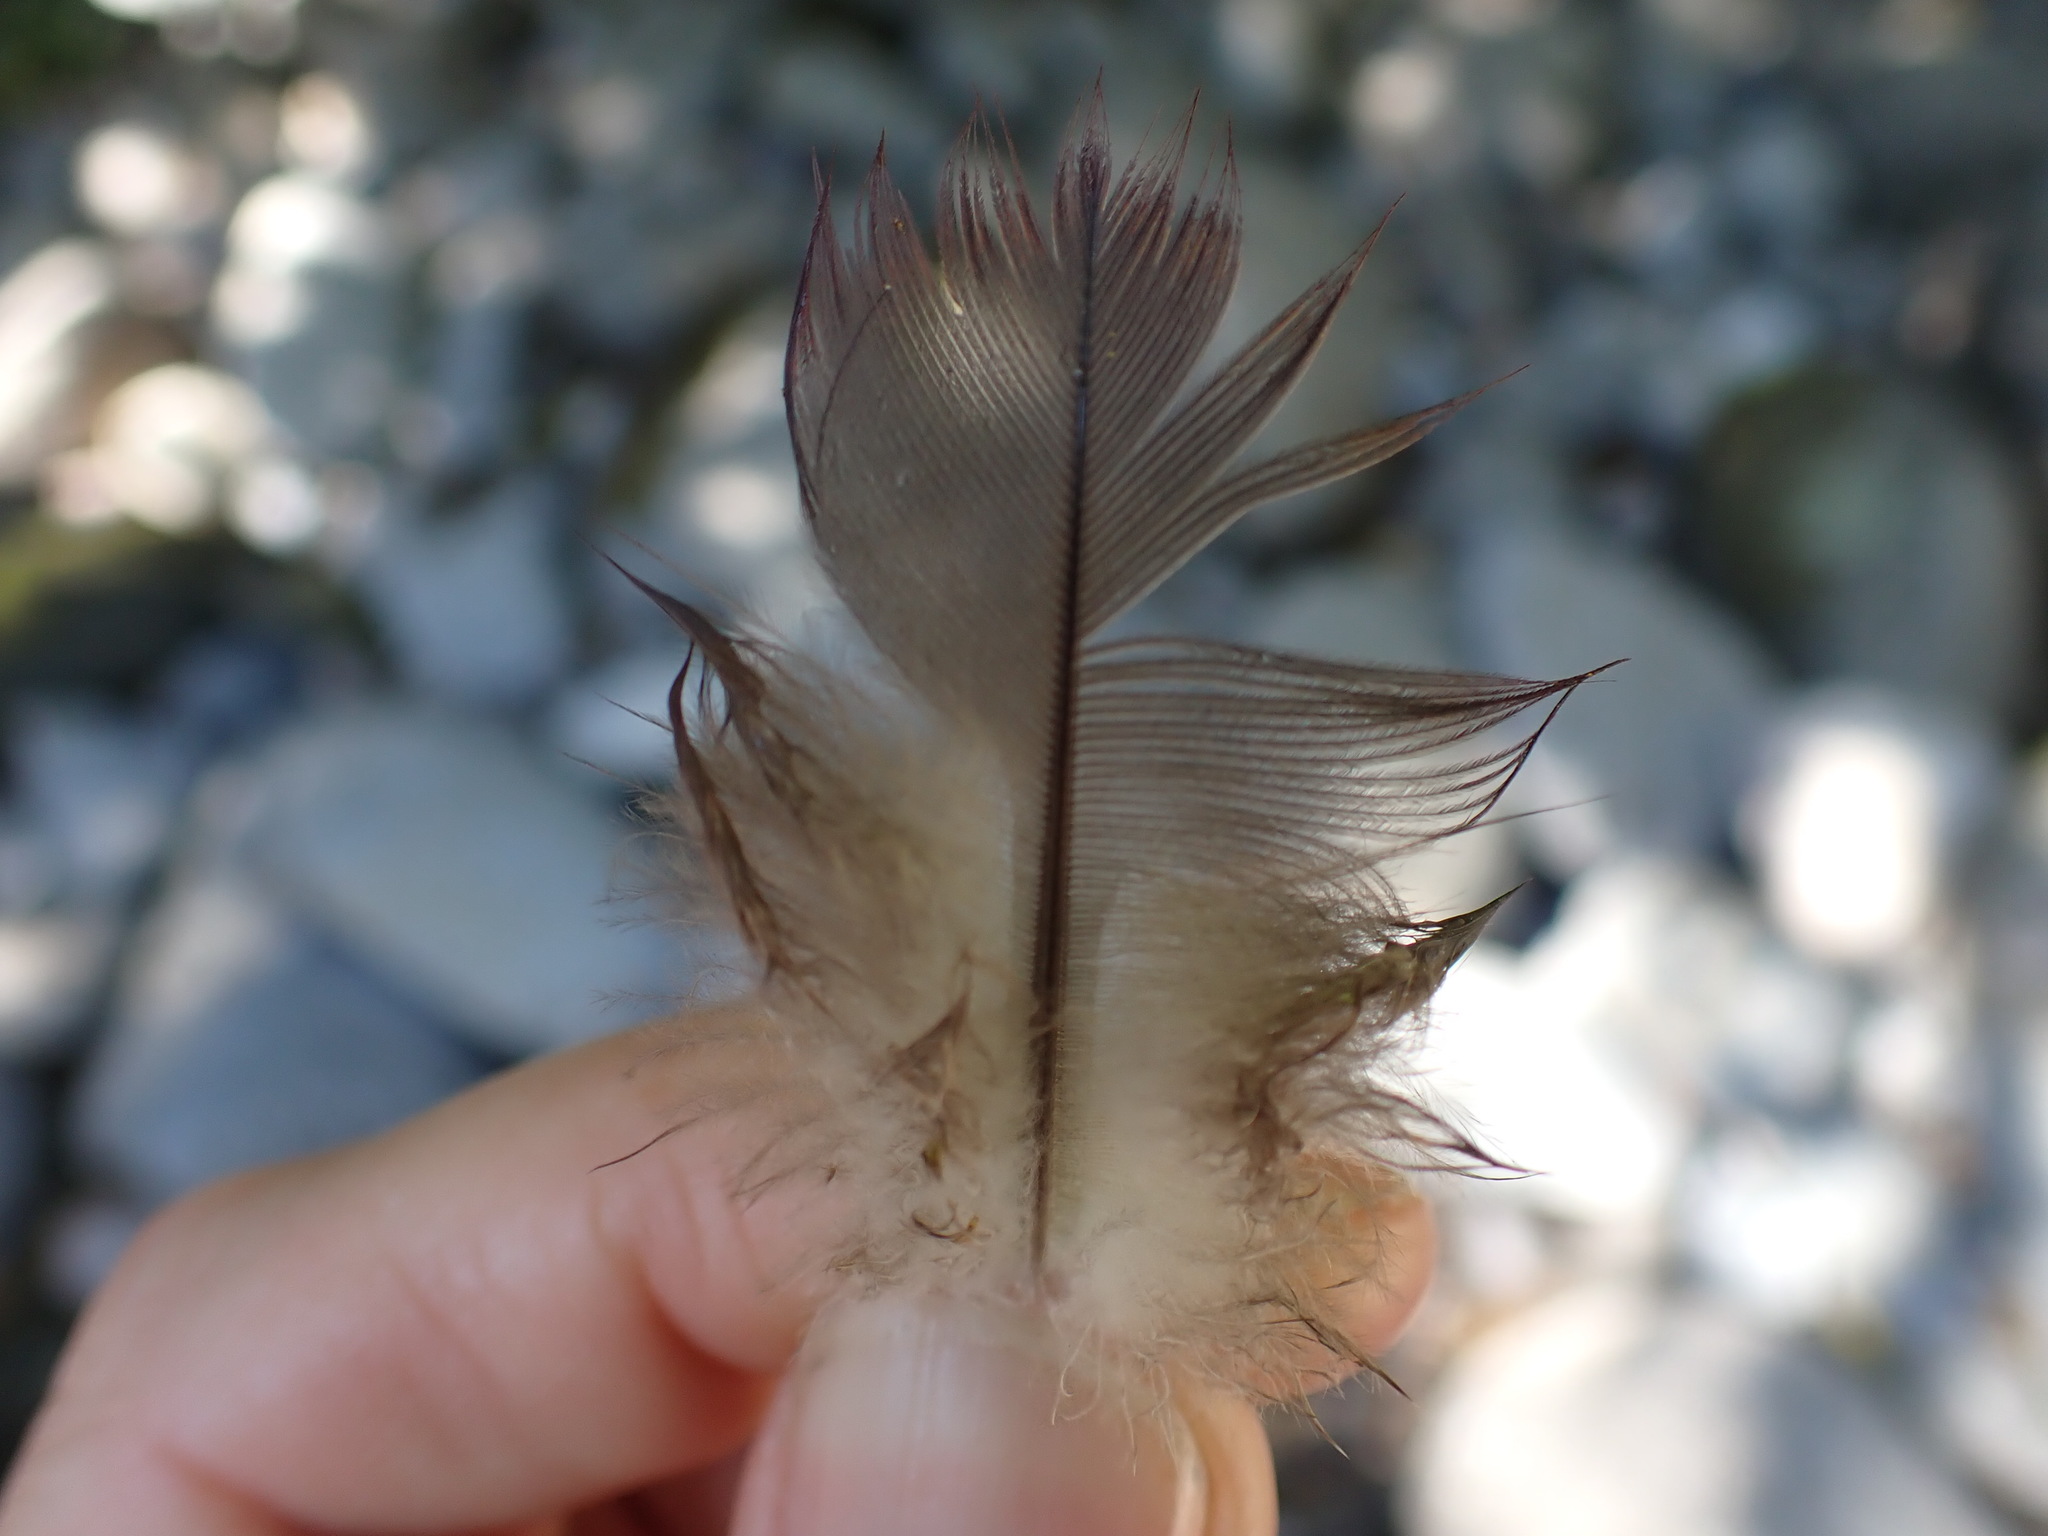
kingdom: Animalia
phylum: Chordata
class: Aves
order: Columbiformes
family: Columbidae
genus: Hemiphaga
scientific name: Hemiphaga novaeseelandiae
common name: New zealand pigeon
